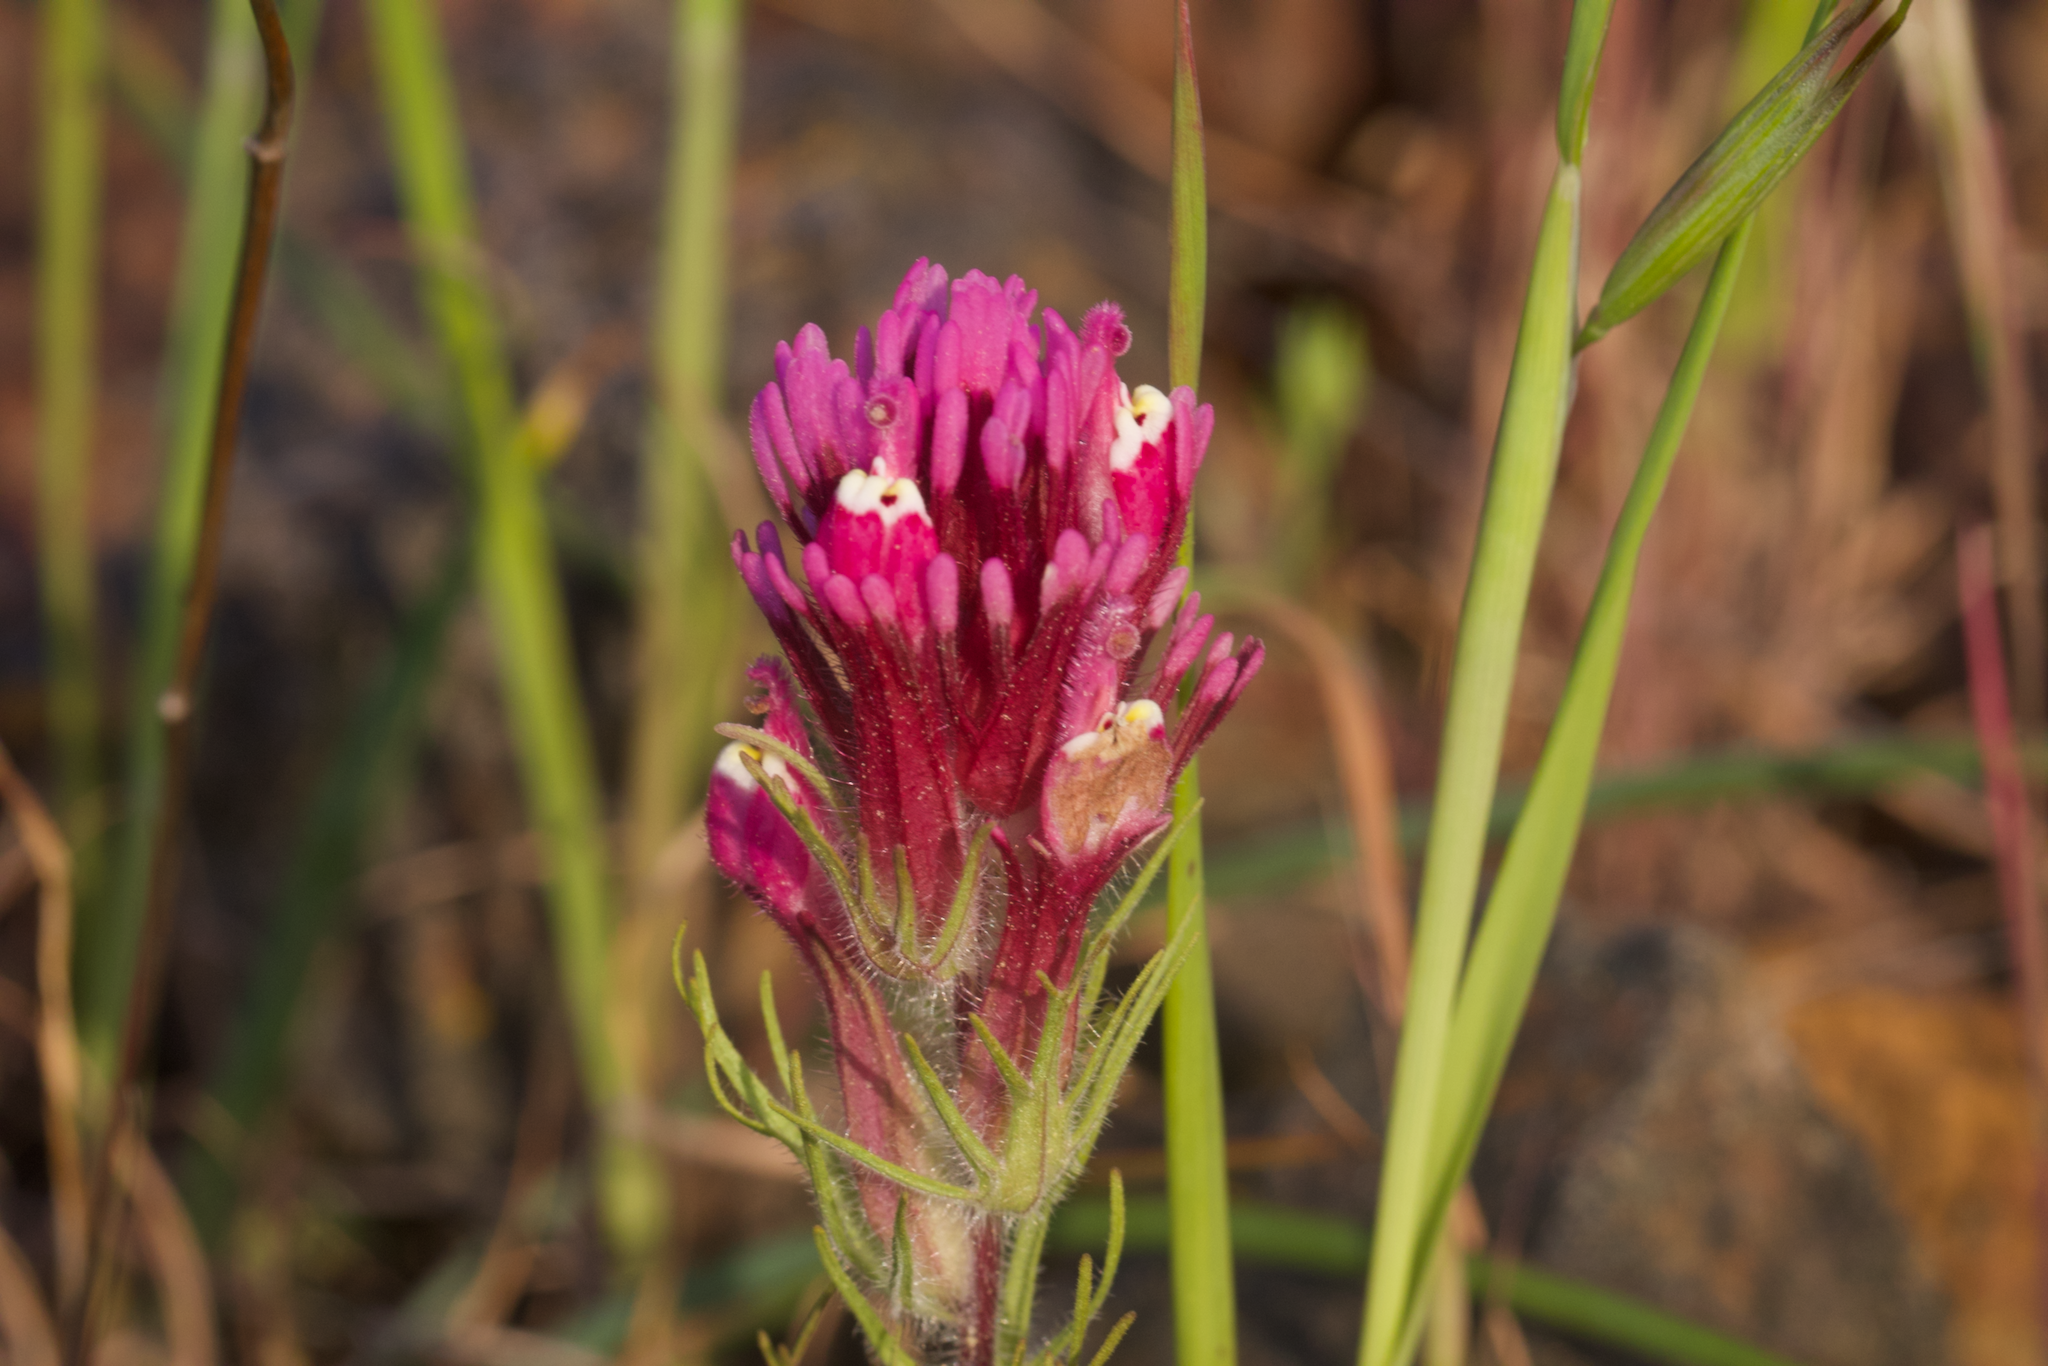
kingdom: Plantae
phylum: Tracheophyta
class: Magnoliopsida
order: Lamiales
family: Orobanchaceae
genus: Castilleja
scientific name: Castilleja exserta
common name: Purple owl-clover
